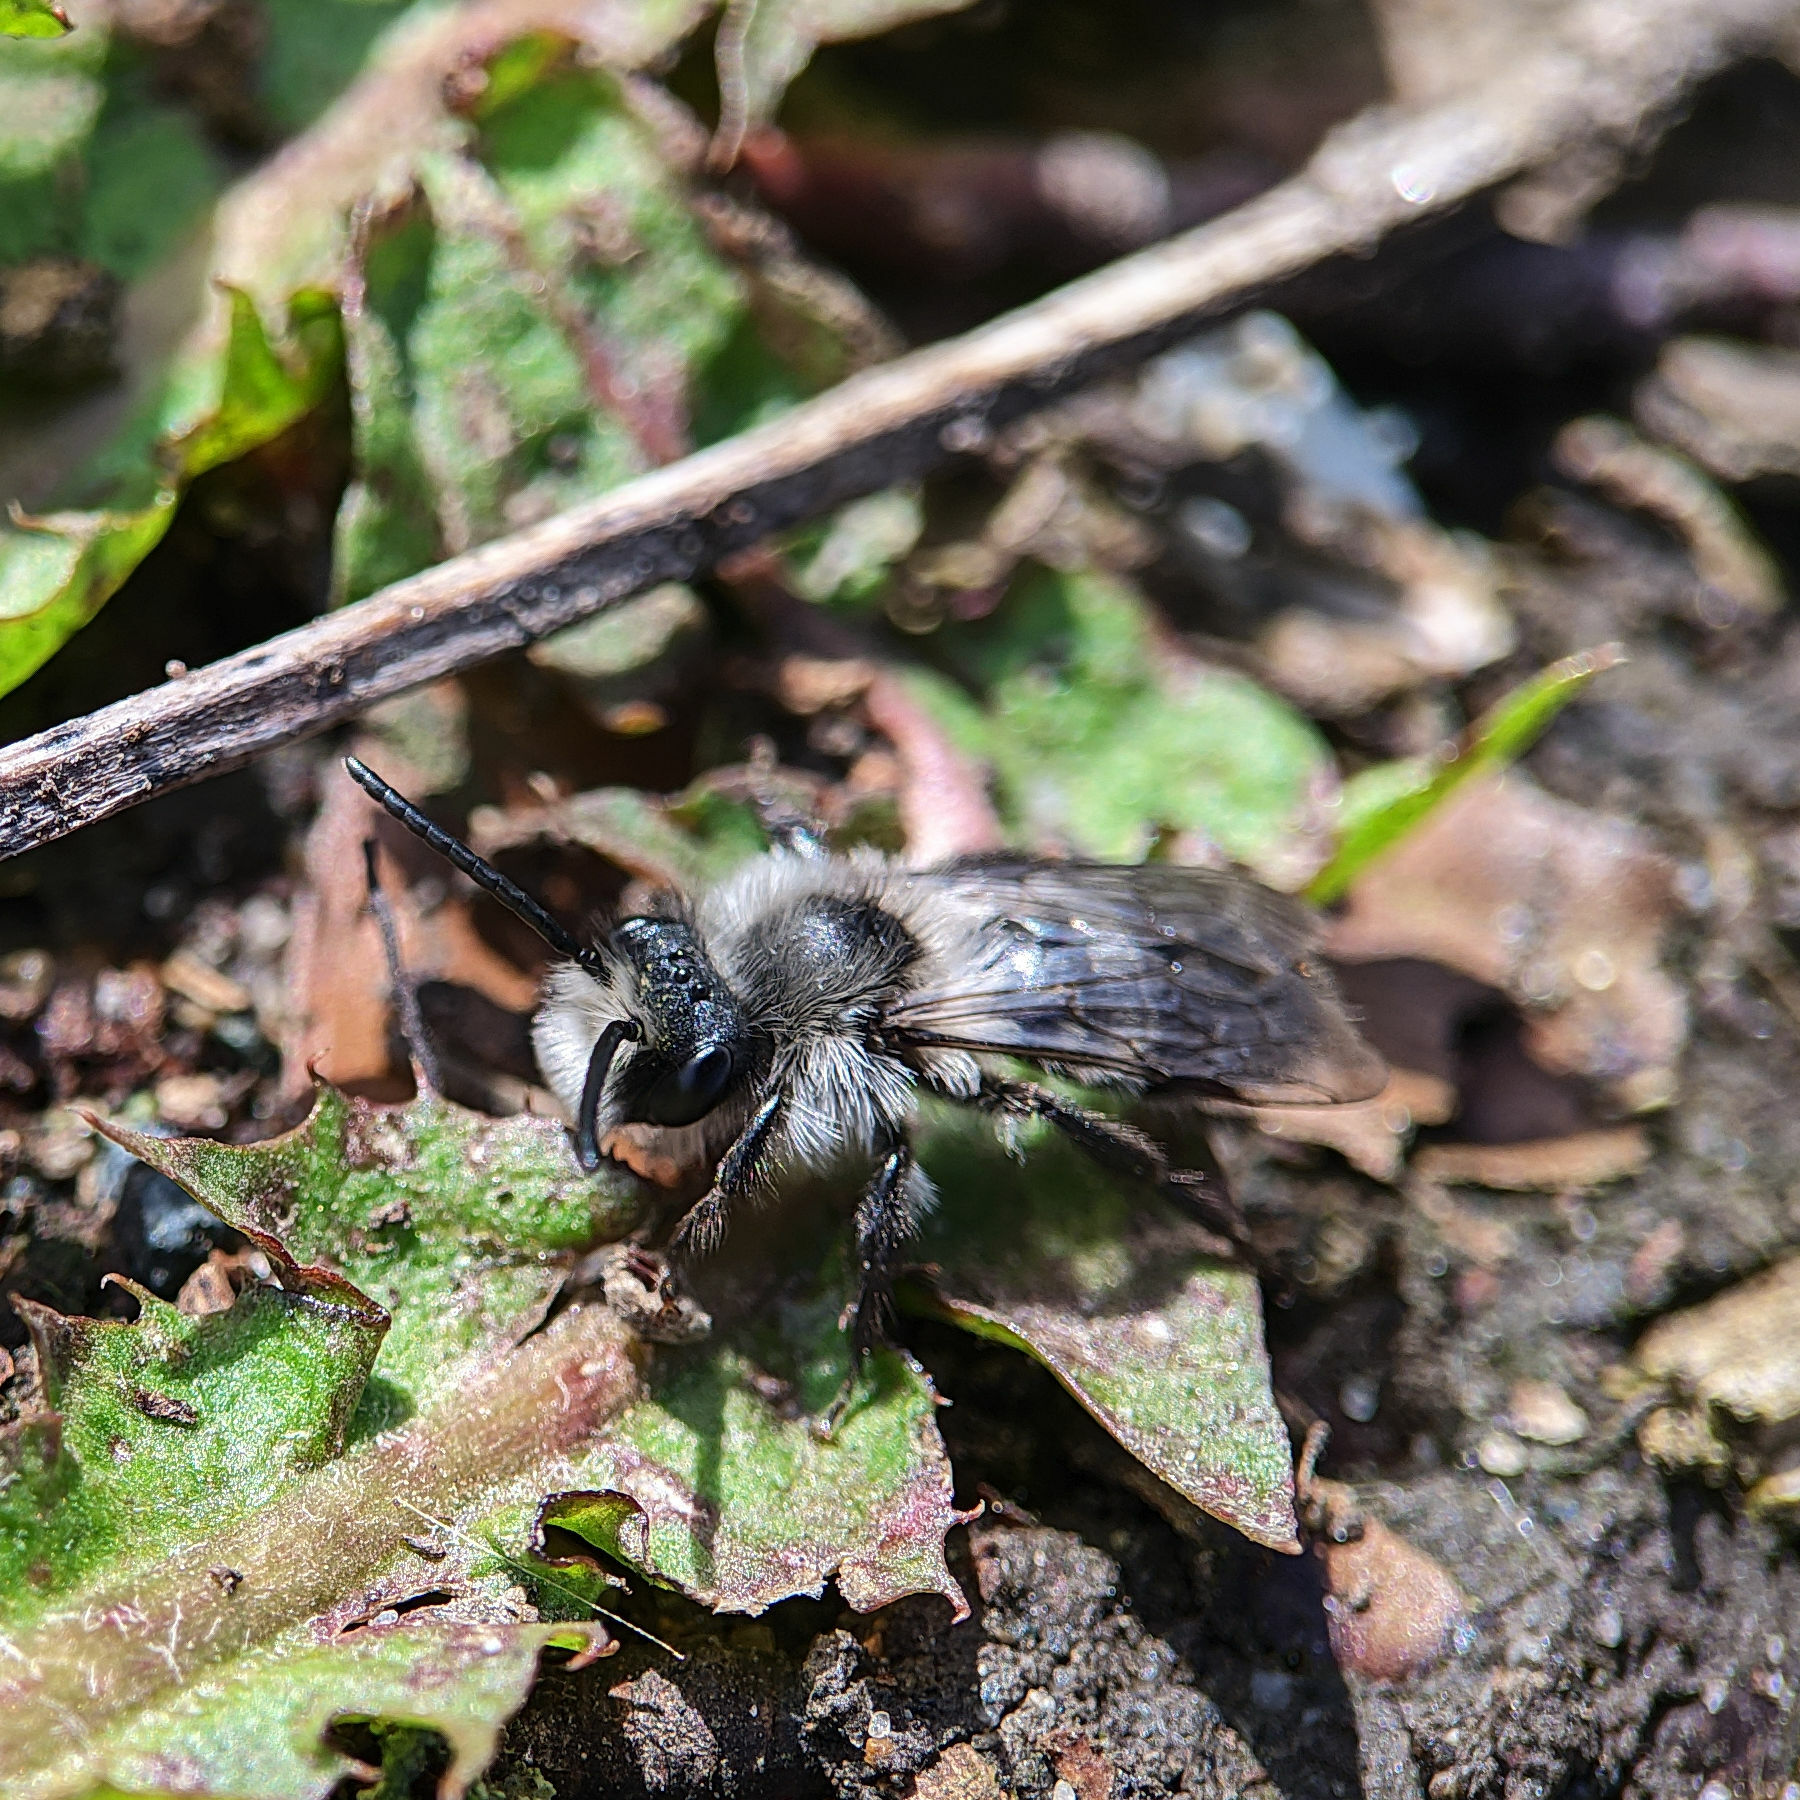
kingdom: Animalia
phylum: Arthropoda
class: Insecta
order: Hymenoptera
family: Andrenidae
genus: Andrena
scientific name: Andrena cineraria
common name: Ashy mining bee
